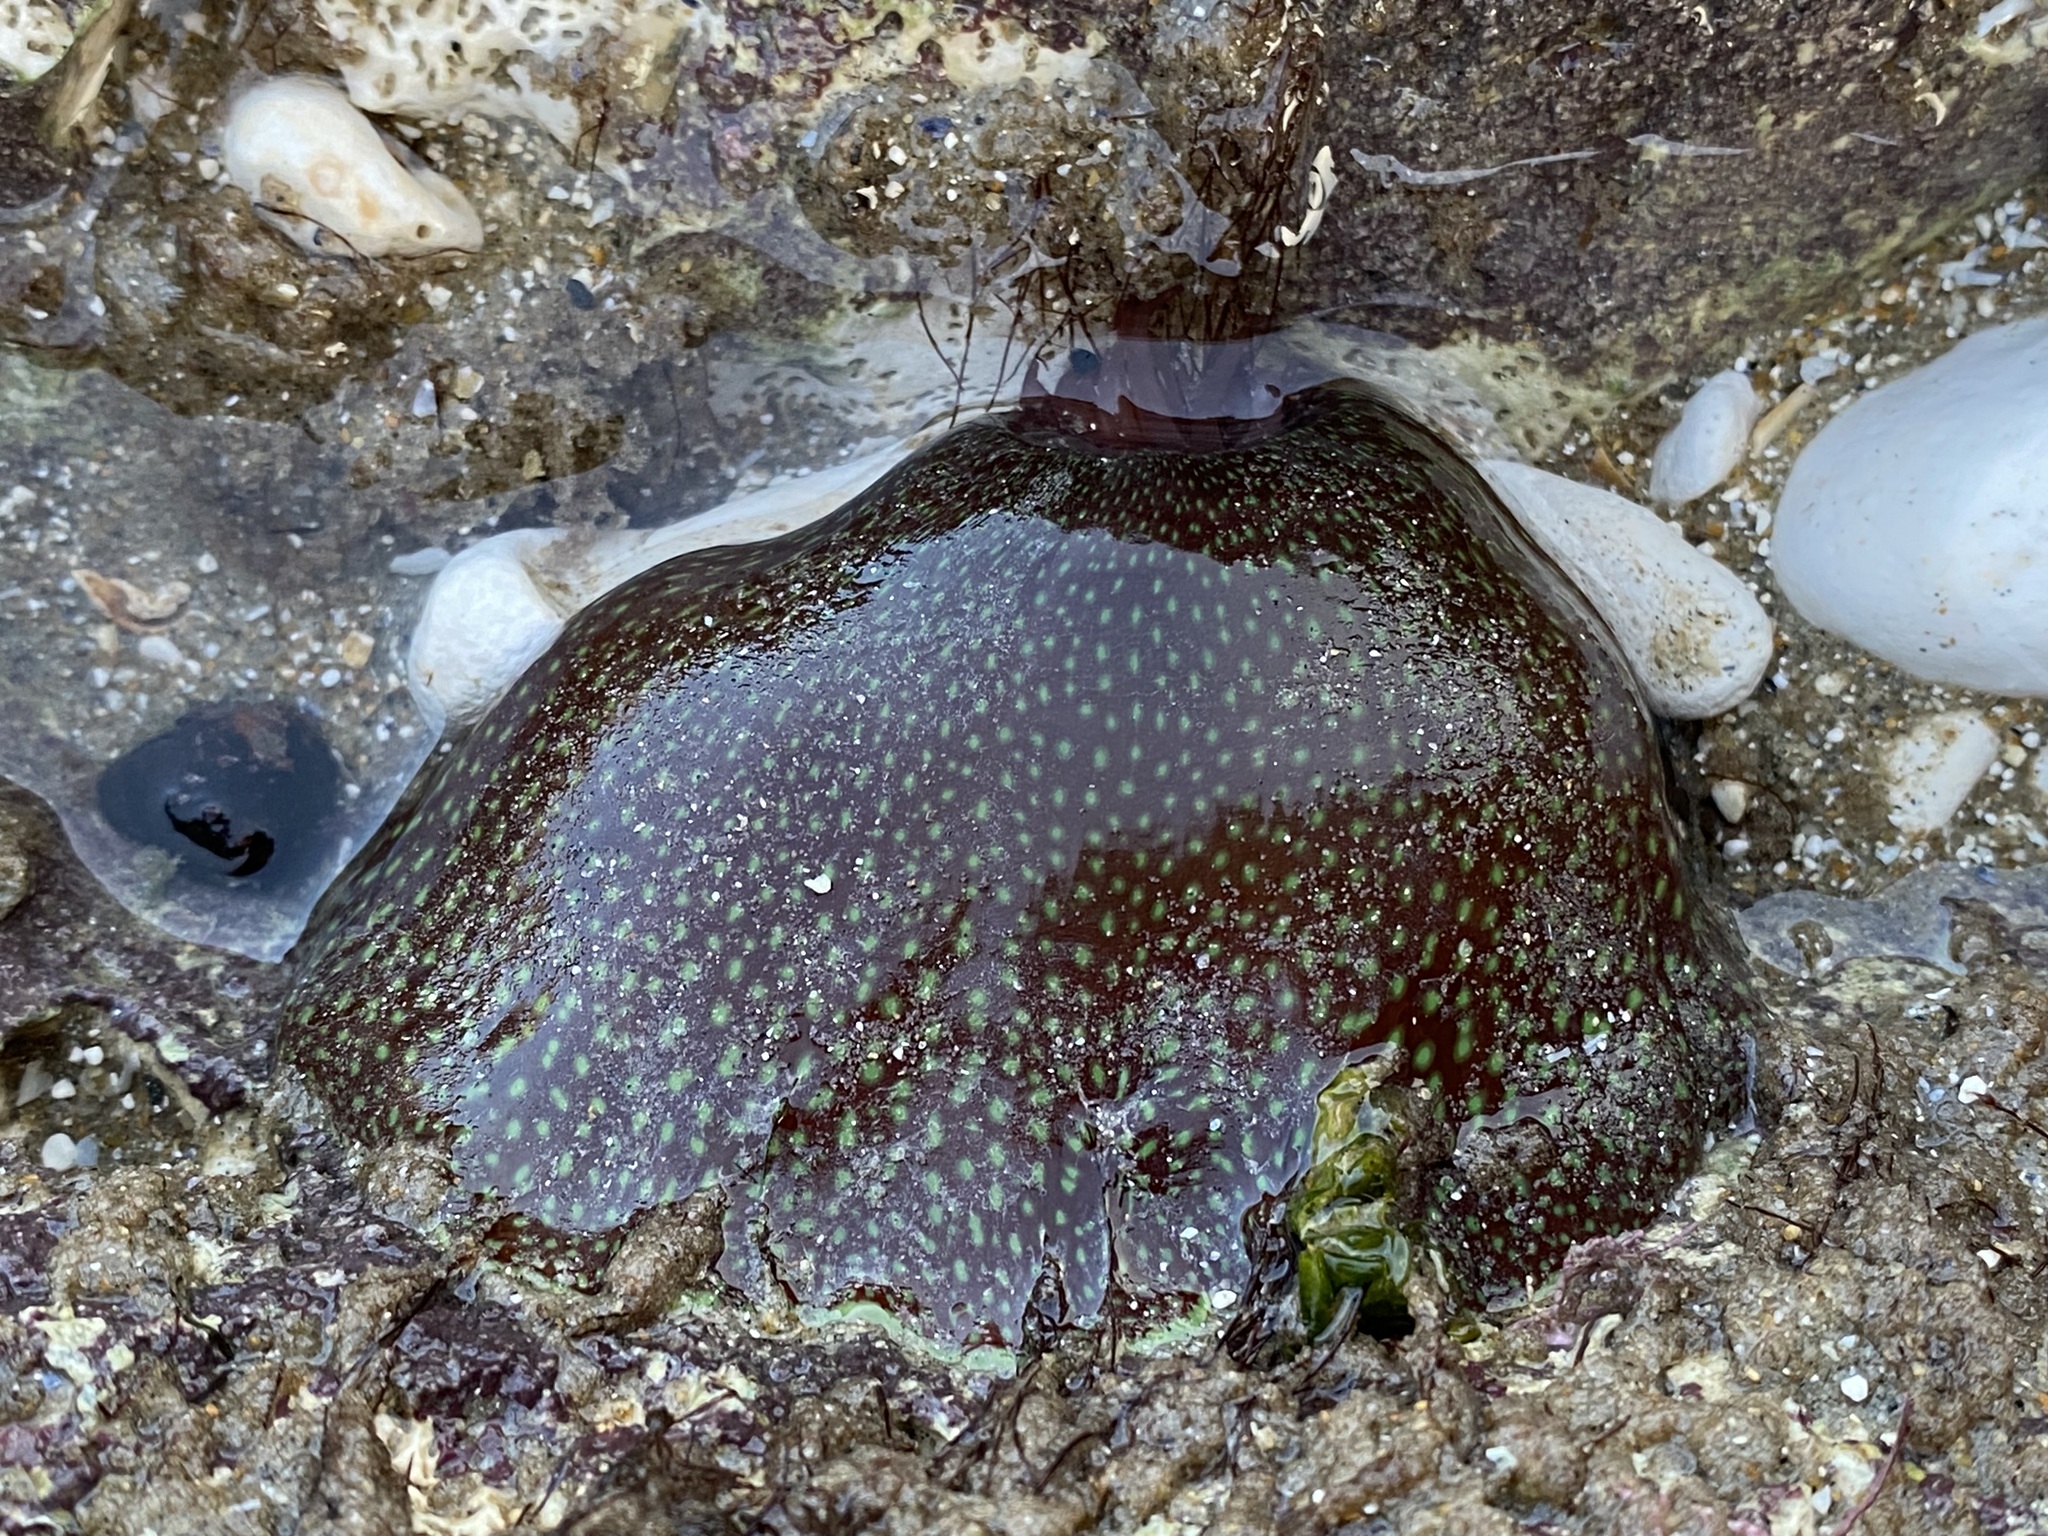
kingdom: Animalia
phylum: Cnidaria
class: Anthozoa
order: Actiniaria
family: Actiniidae
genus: Actinia
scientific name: Actinia fragacea
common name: Strawberry anemone
